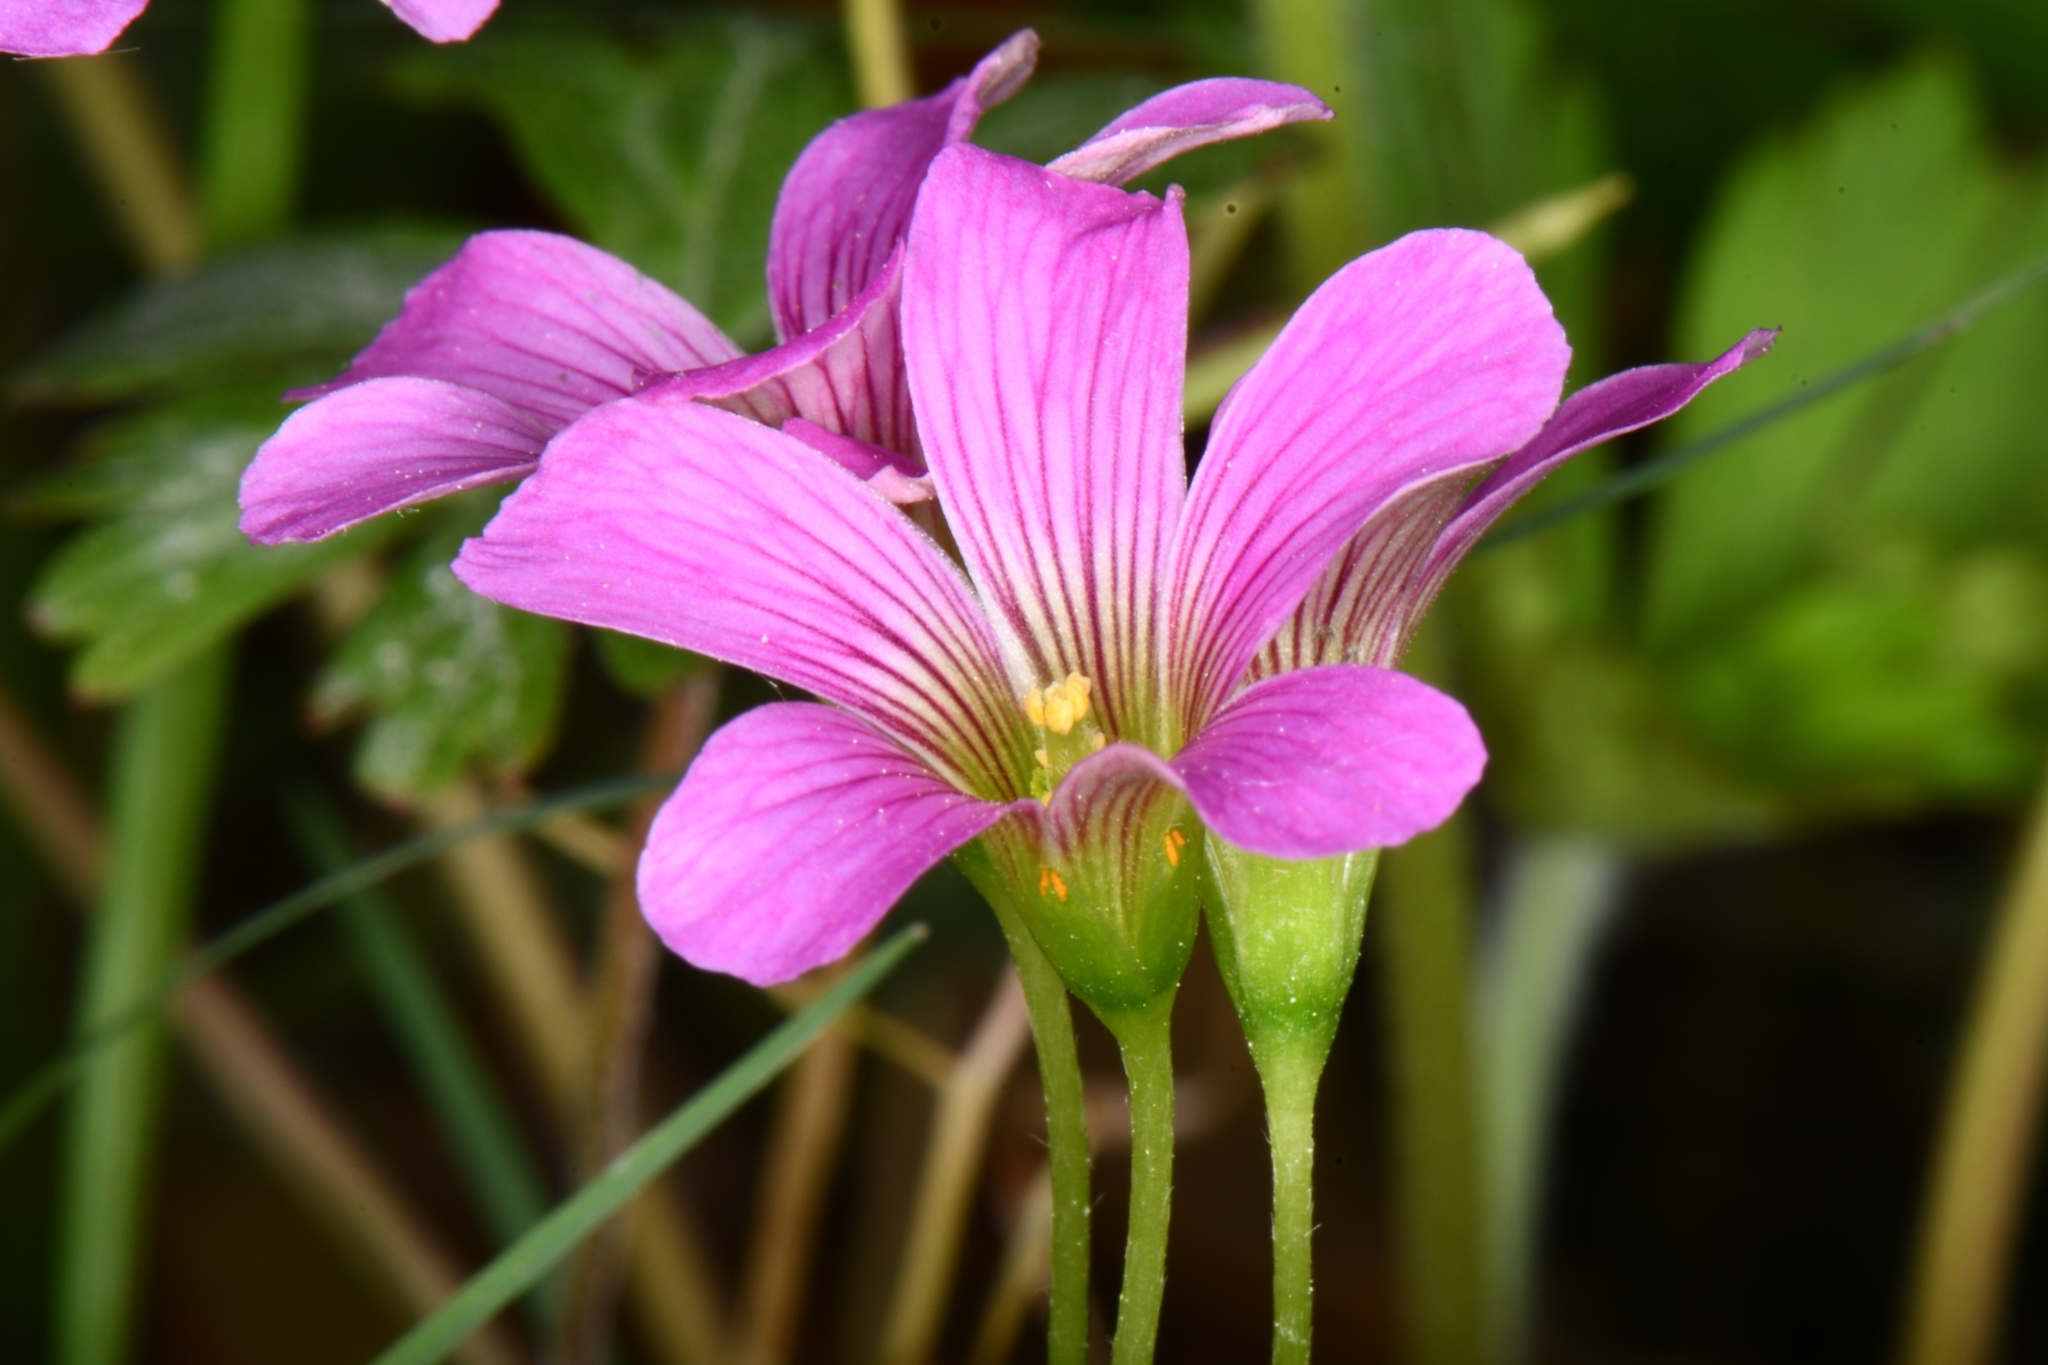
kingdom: Plantae
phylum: Tracheophyta
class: Magnoliopsida
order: Oxalidales
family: Oxalidaceae
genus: Oxalis
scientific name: Oxalis debilis
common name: Large-flowered pink-sorrel
